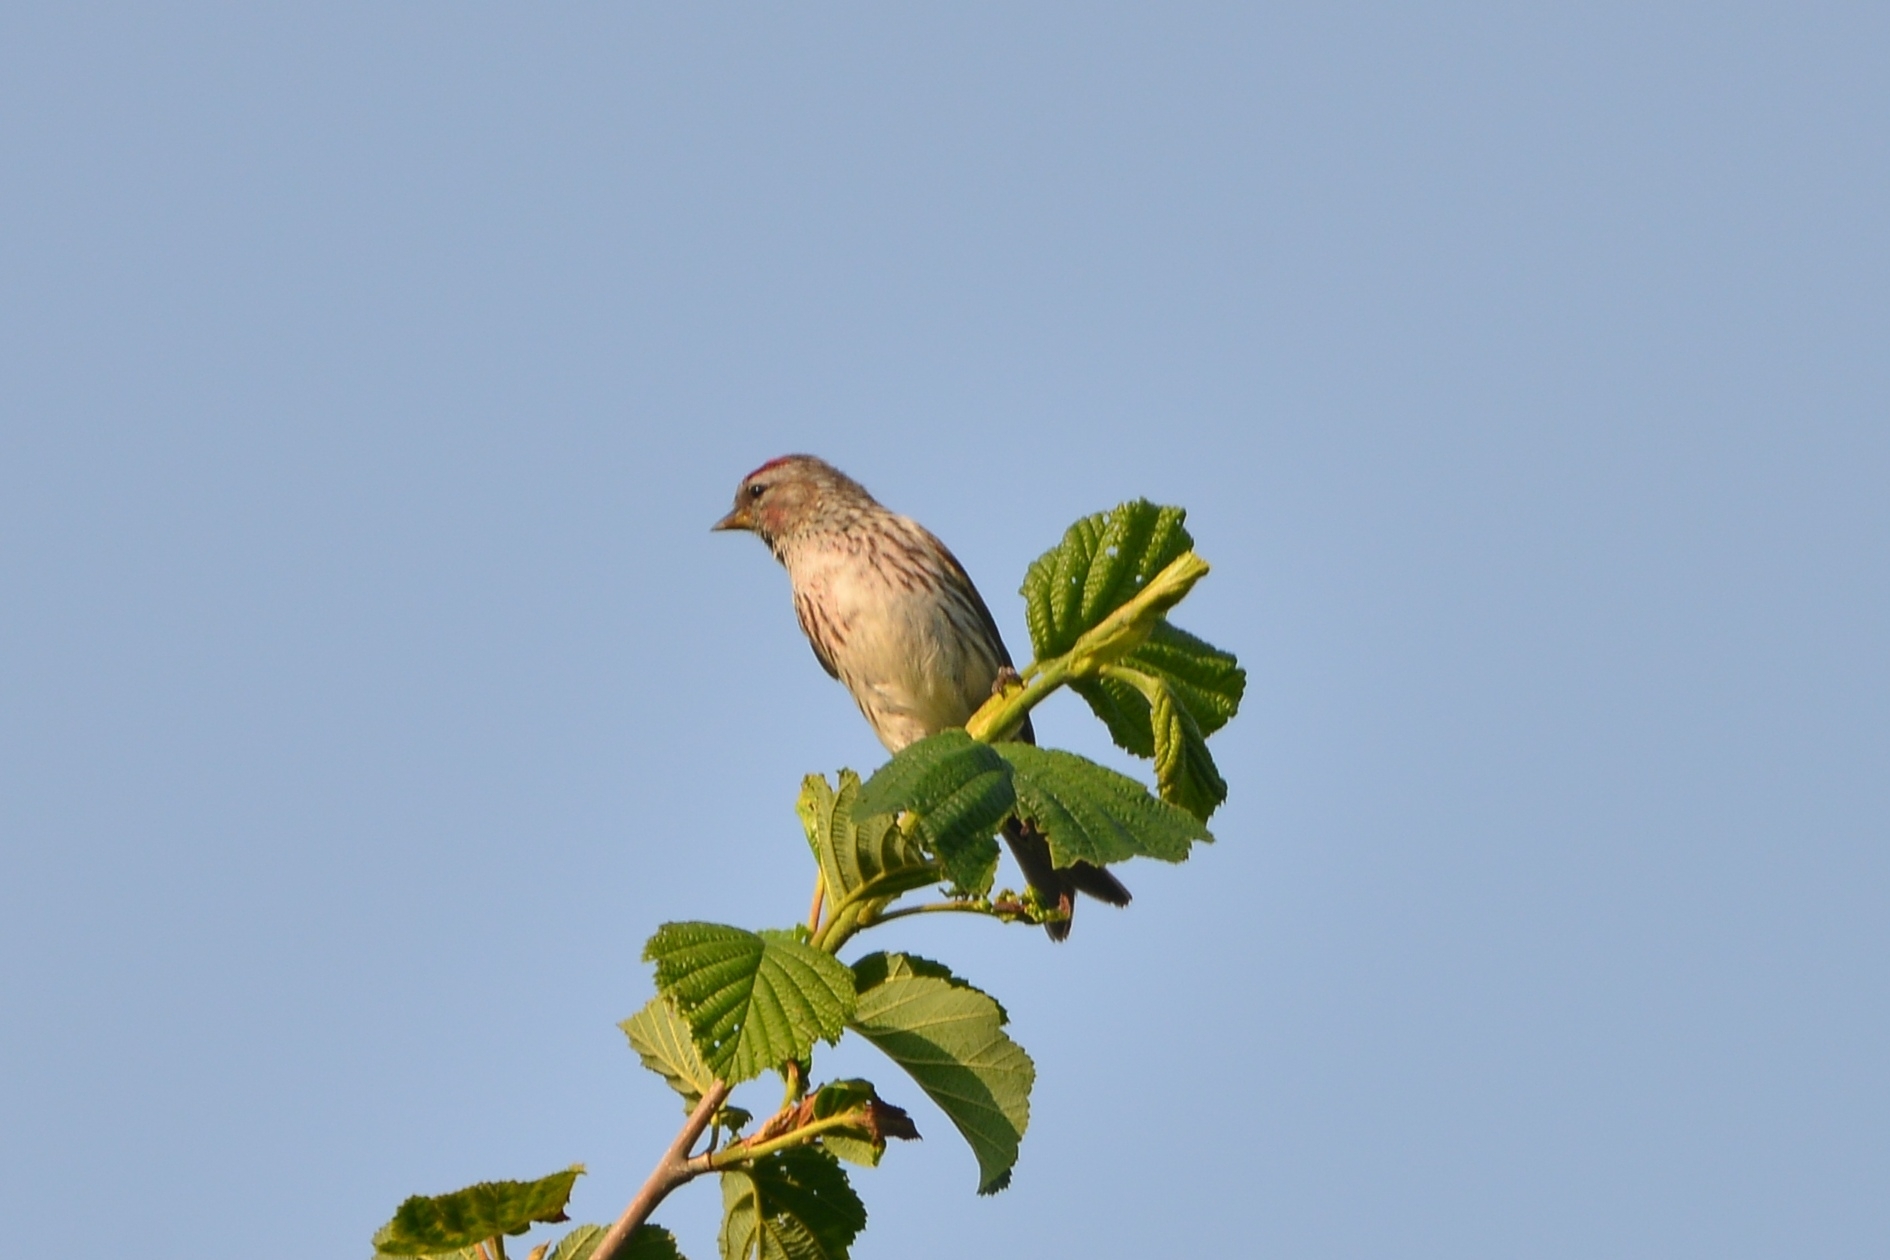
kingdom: Animalia
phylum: Chordata
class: Aves
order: Passeriformes
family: Fringillidae
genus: Acanthis
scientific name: Acanthis flammea
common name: Common redpoll
